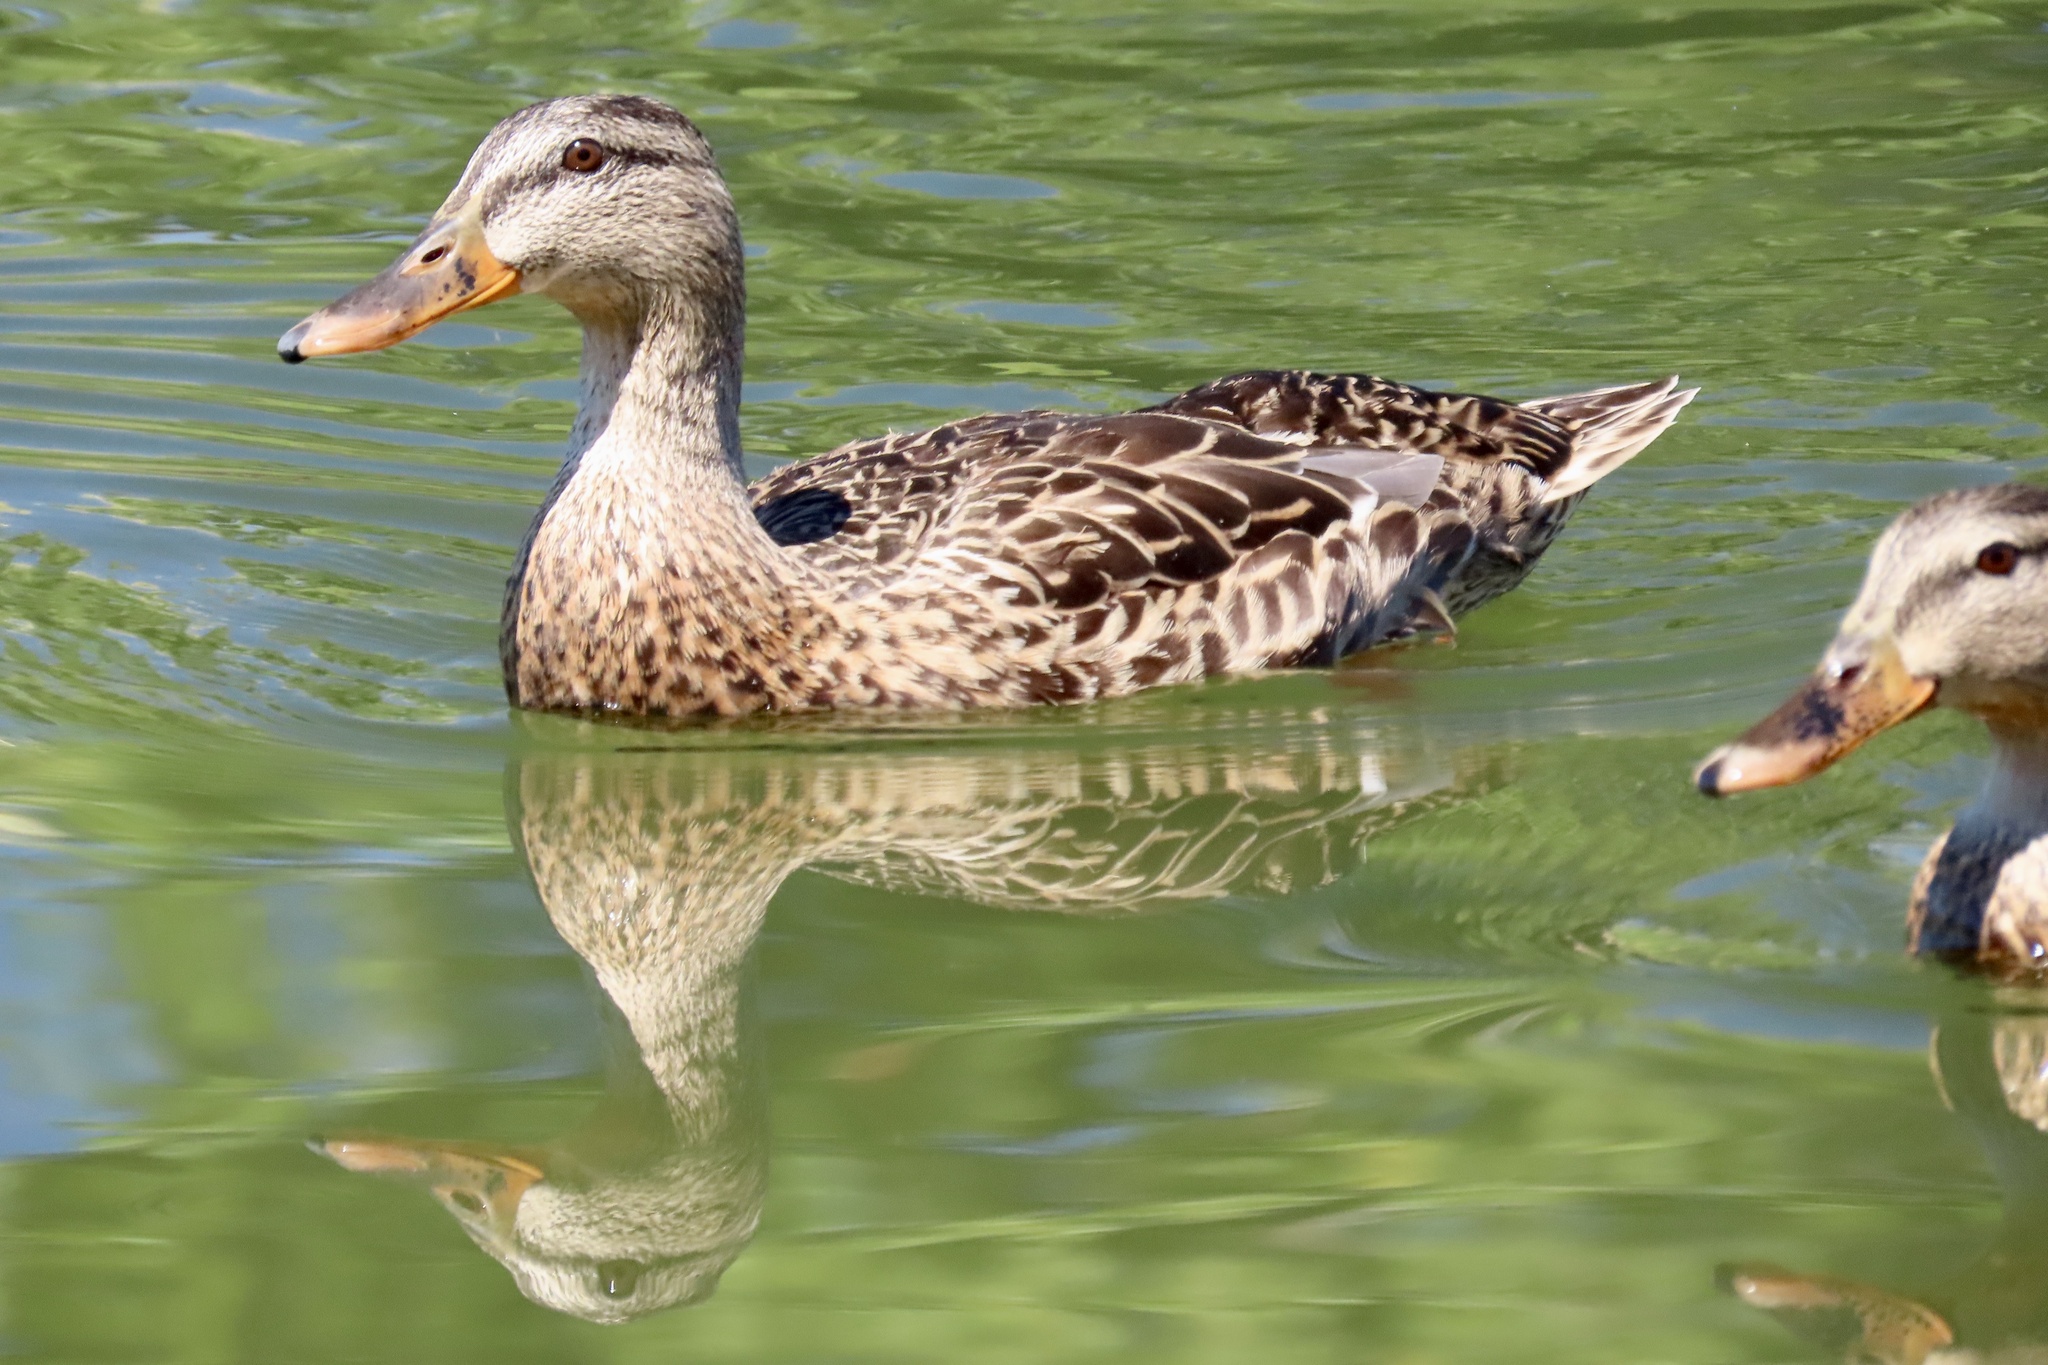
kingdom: Animalia
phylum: Chordata
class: Aves
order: Anseriformes
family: Anatidae
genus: Anas
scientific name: Anas platyrhynchos
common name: Mallard
